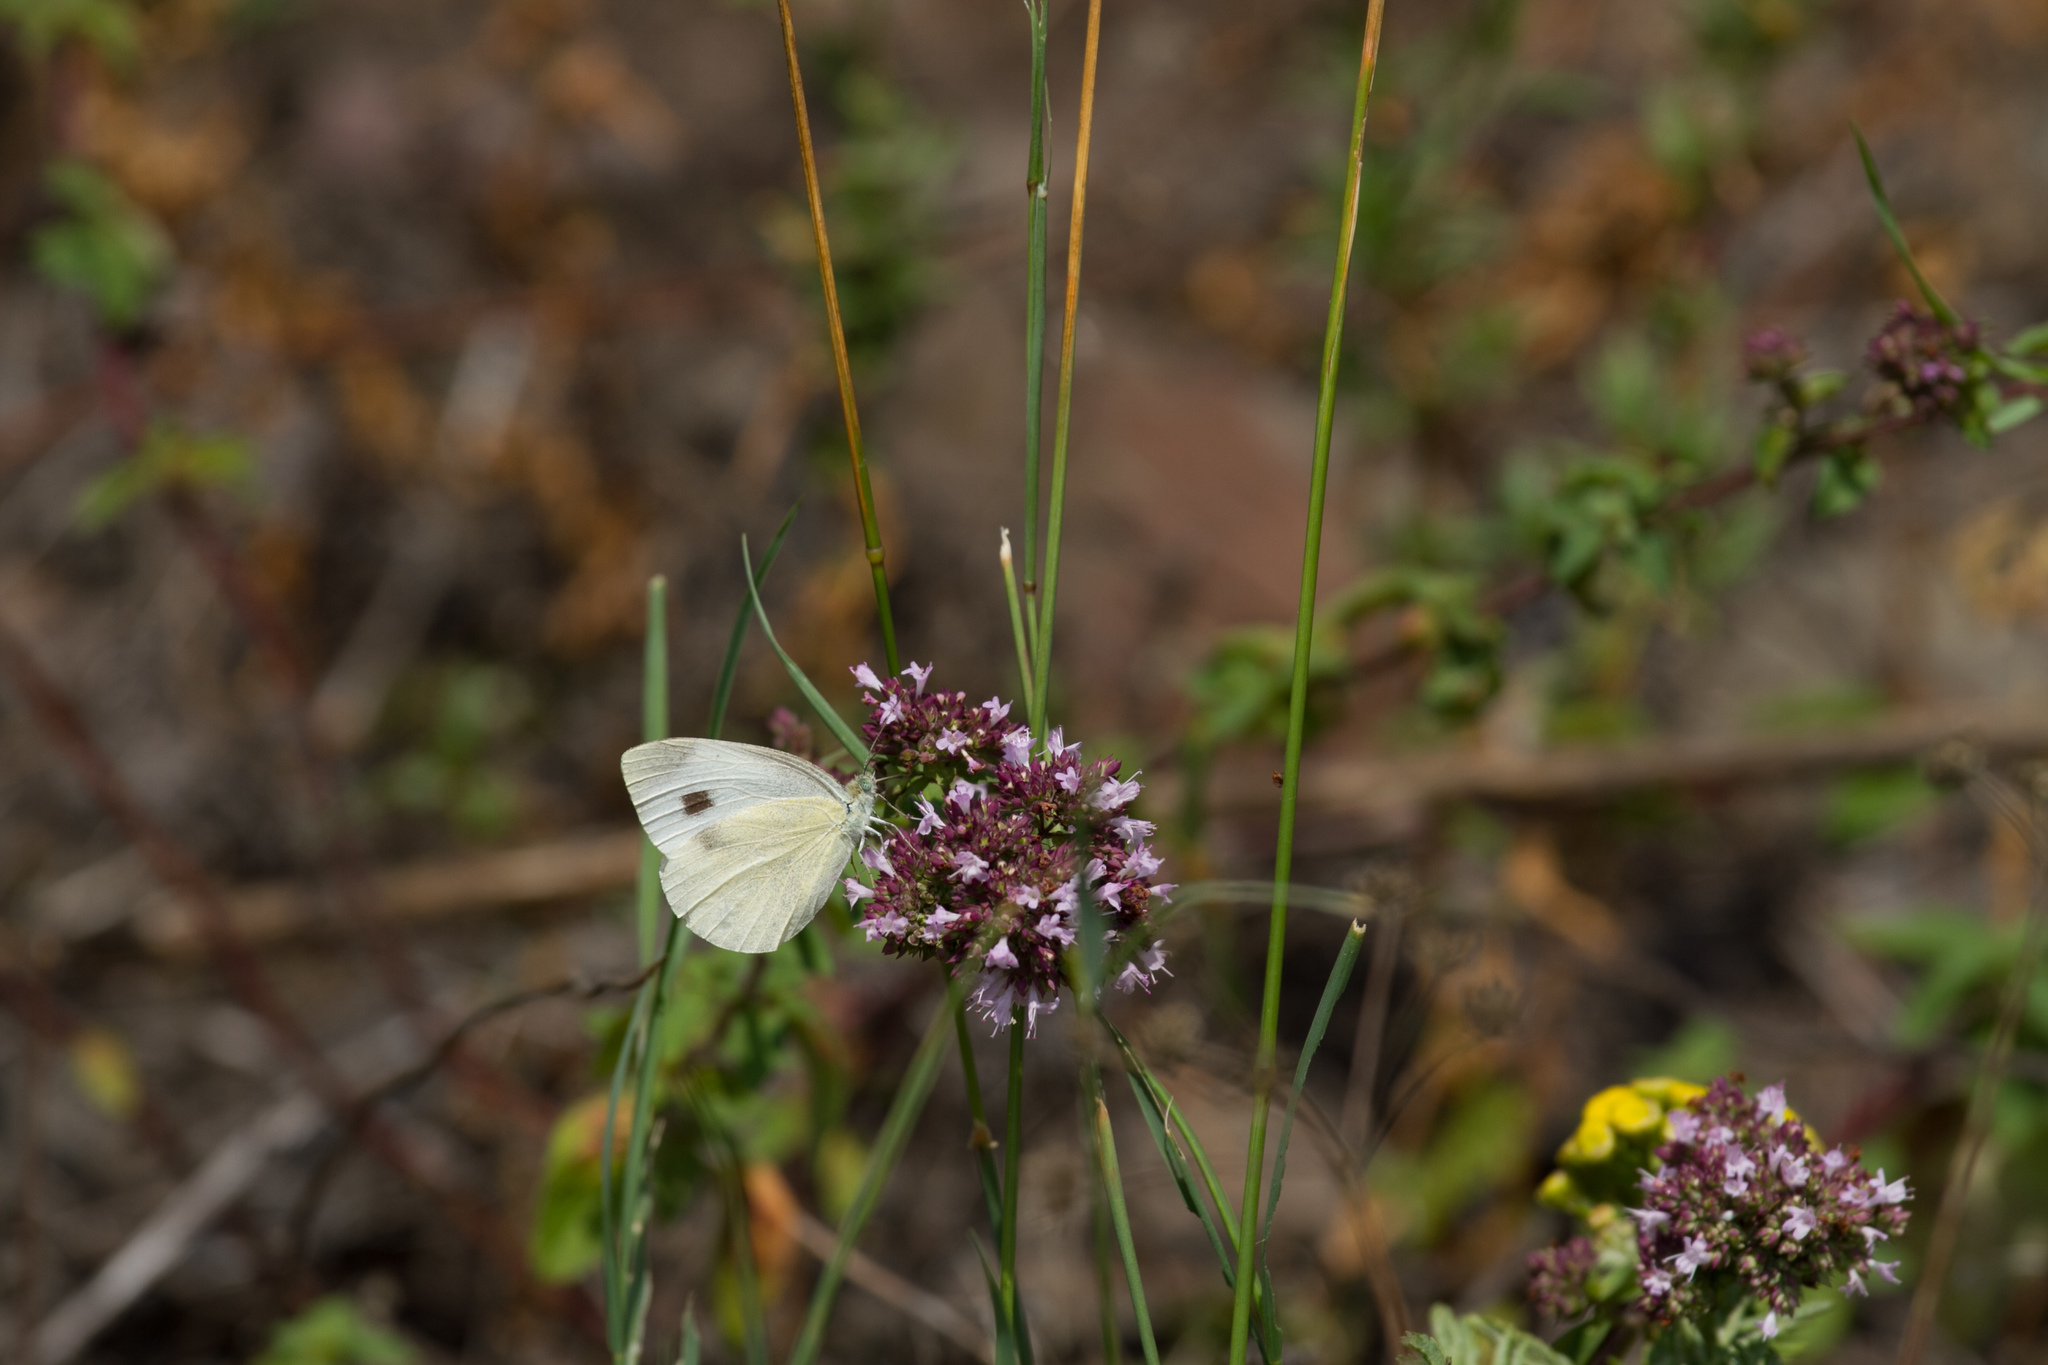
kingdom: Animalia
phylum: Arthropoda
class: Insecta
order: Lepidoptera
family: Pieridae
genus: Pieris
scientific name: Pieris mannii
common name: Southern small white
